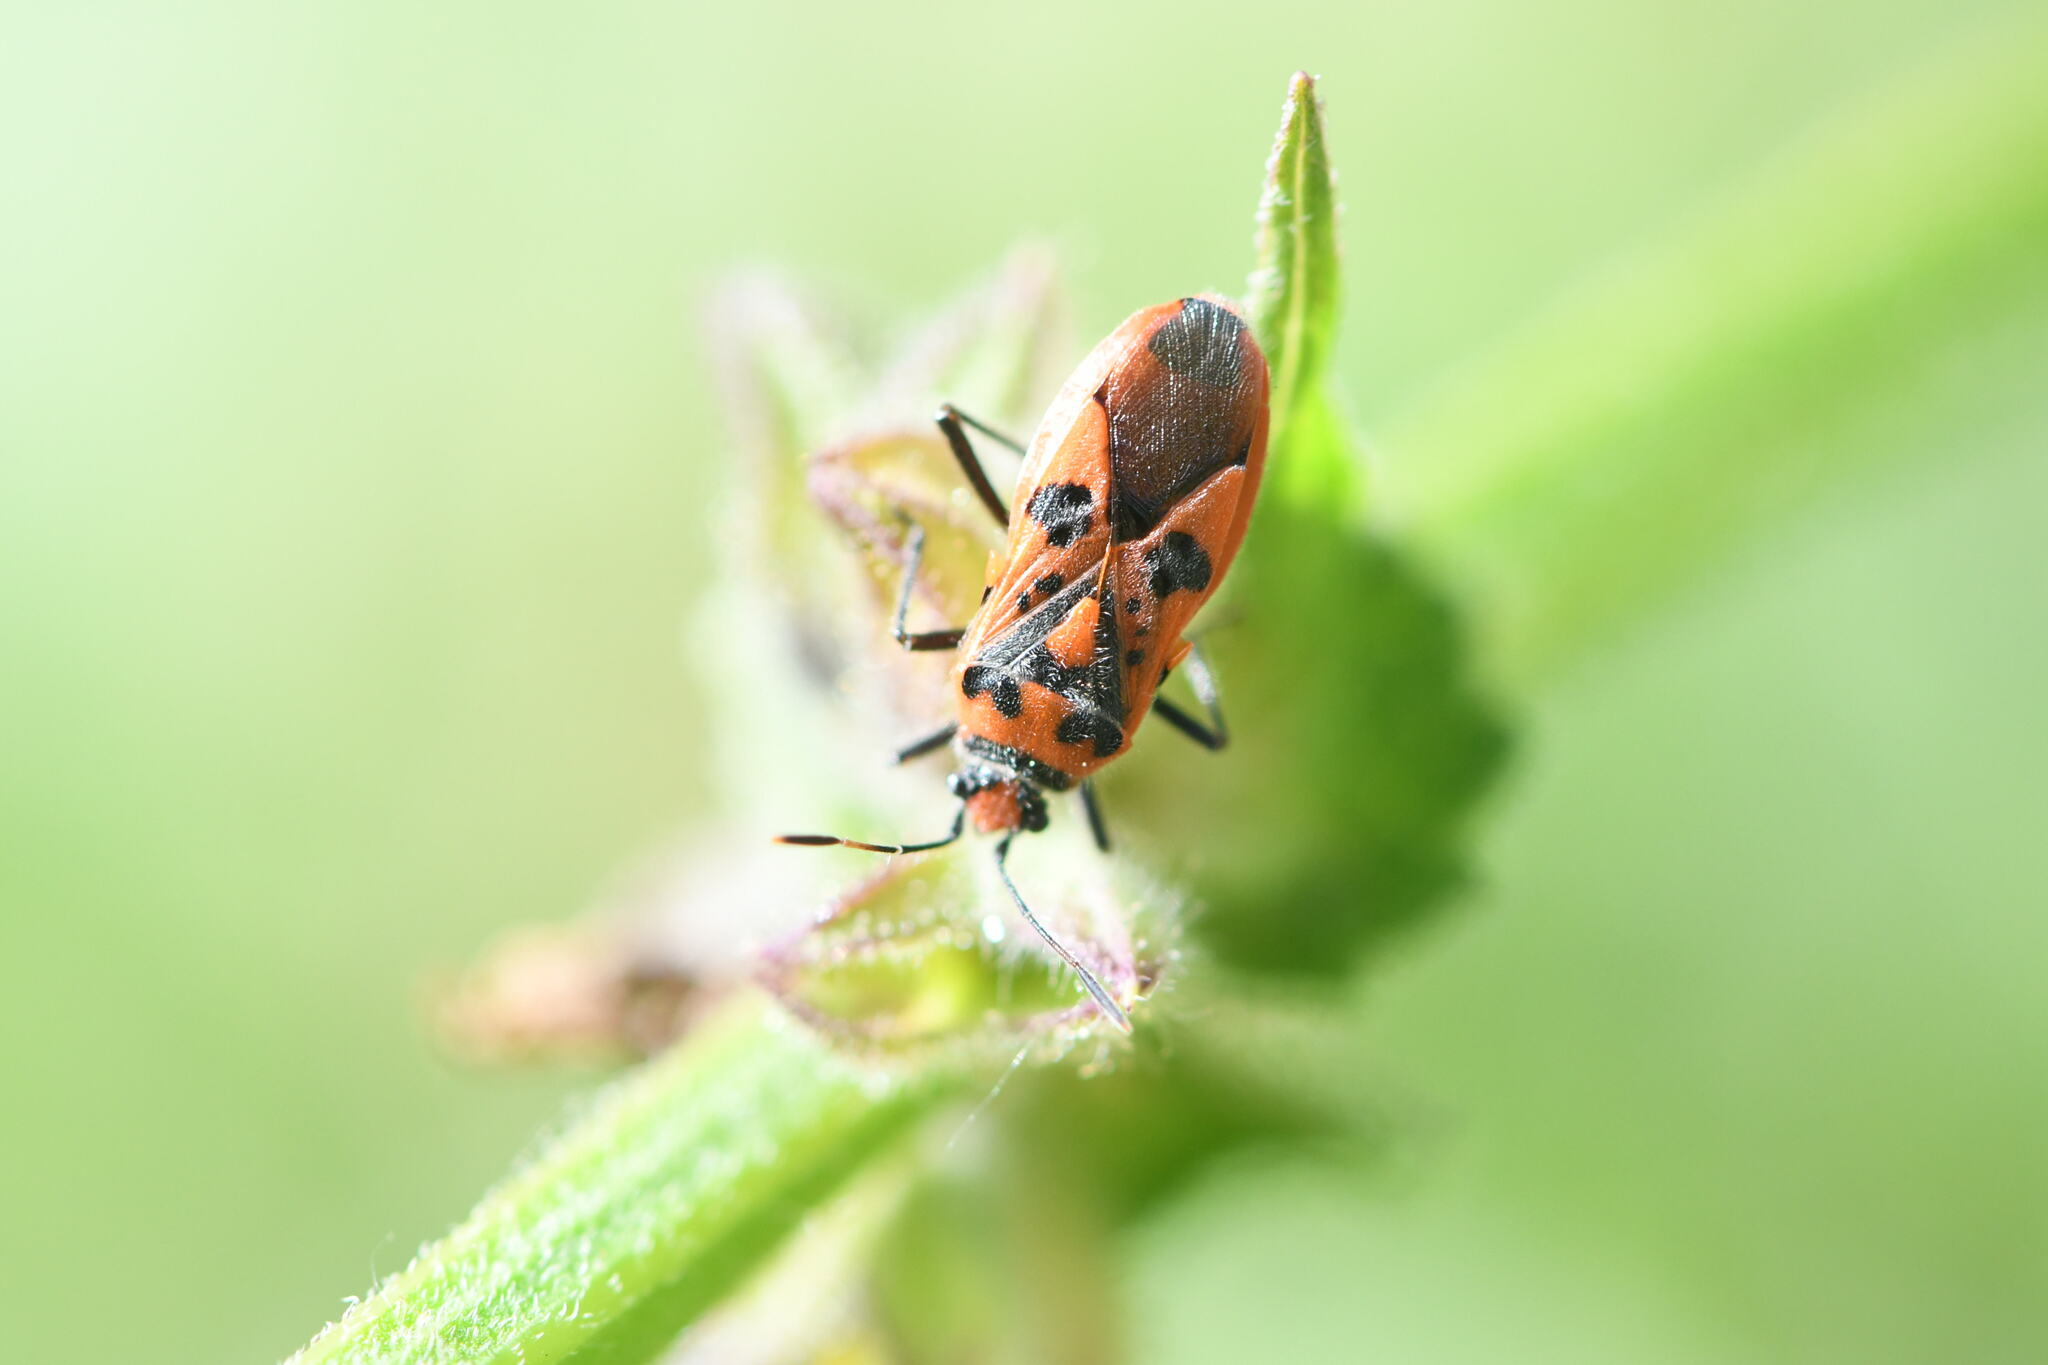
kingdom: Animalia
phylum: Arthropoda
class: Insecta
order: Hemiptera
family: Rhopalidae
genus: Corizus
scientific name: Corizus hyoscyami
